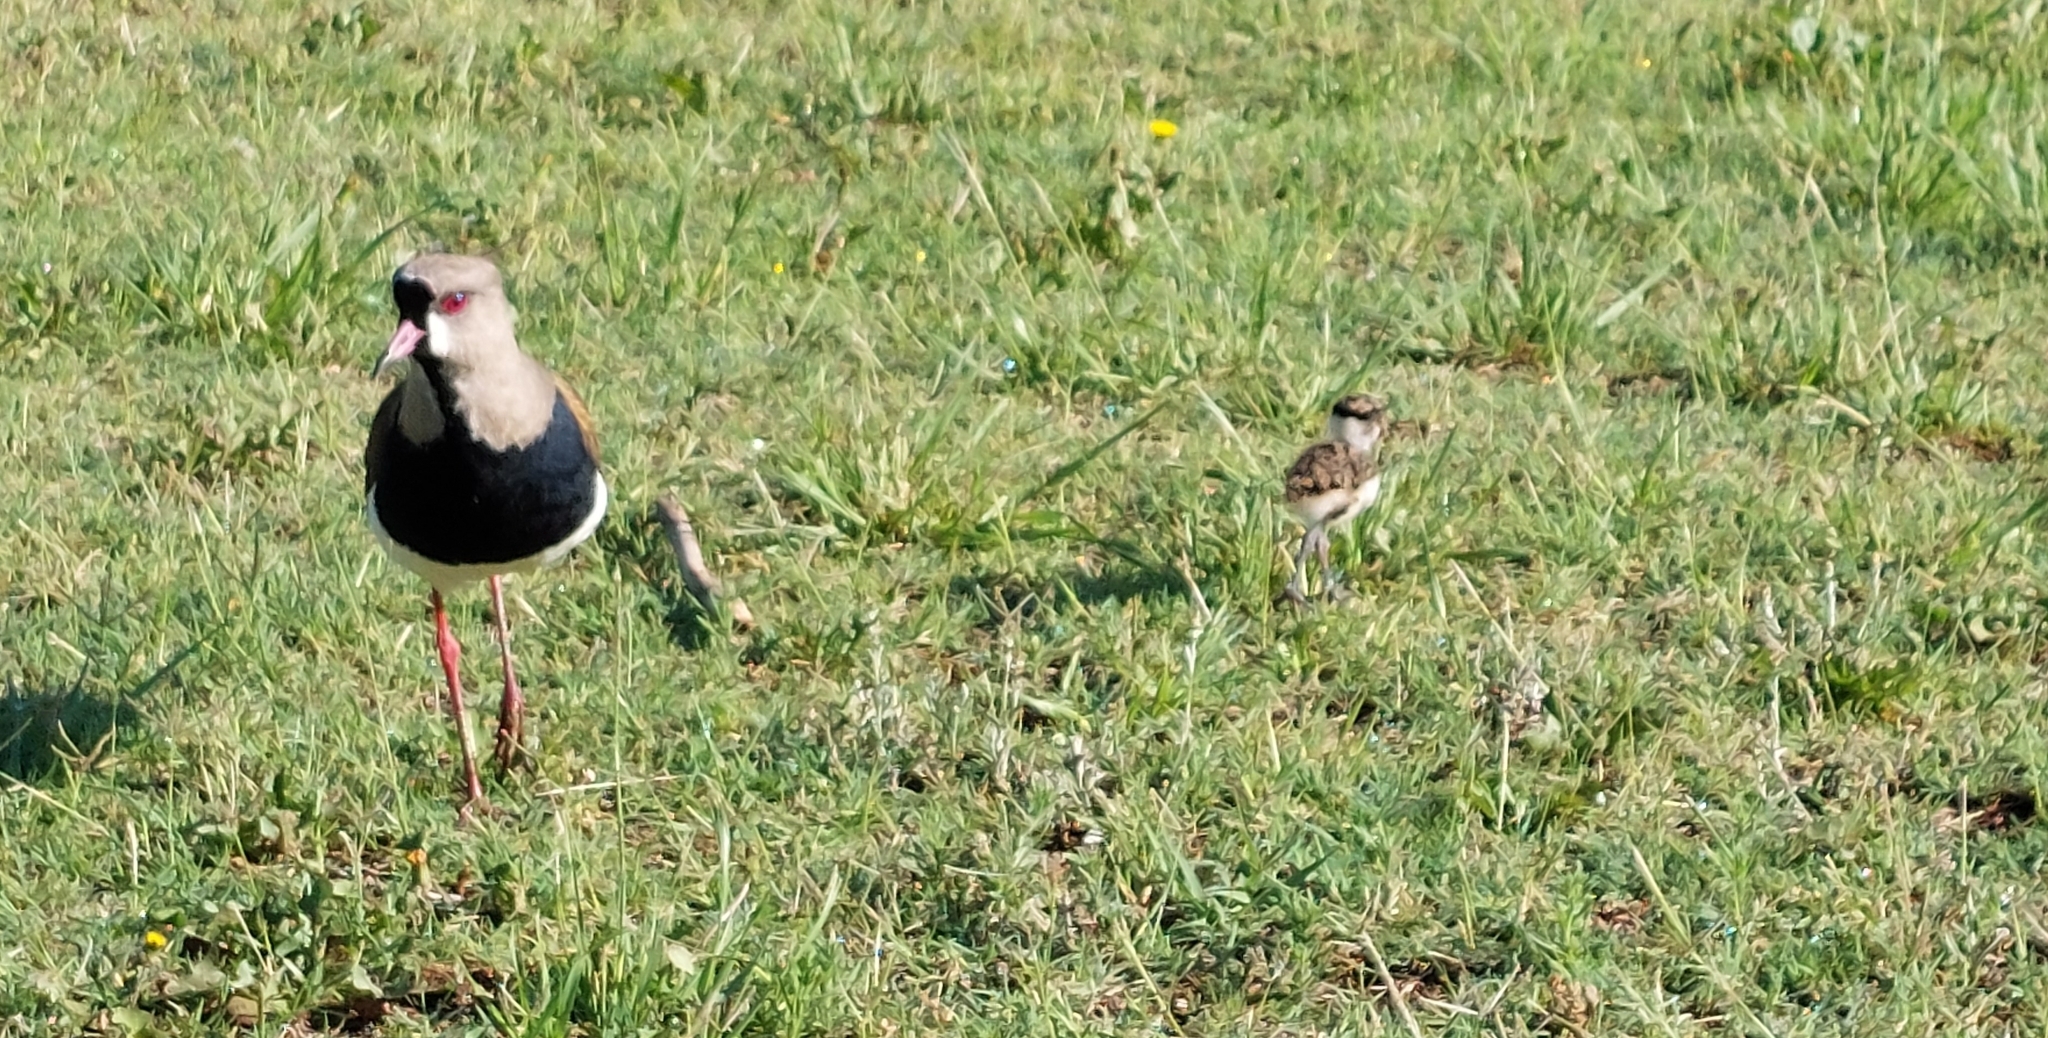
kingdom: Animalia
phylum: Chordata
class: Aves
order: Charadriiformes
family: Charadriidae
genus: Vanellus
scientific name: Vanellus chilensis
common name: Southern lapwing
